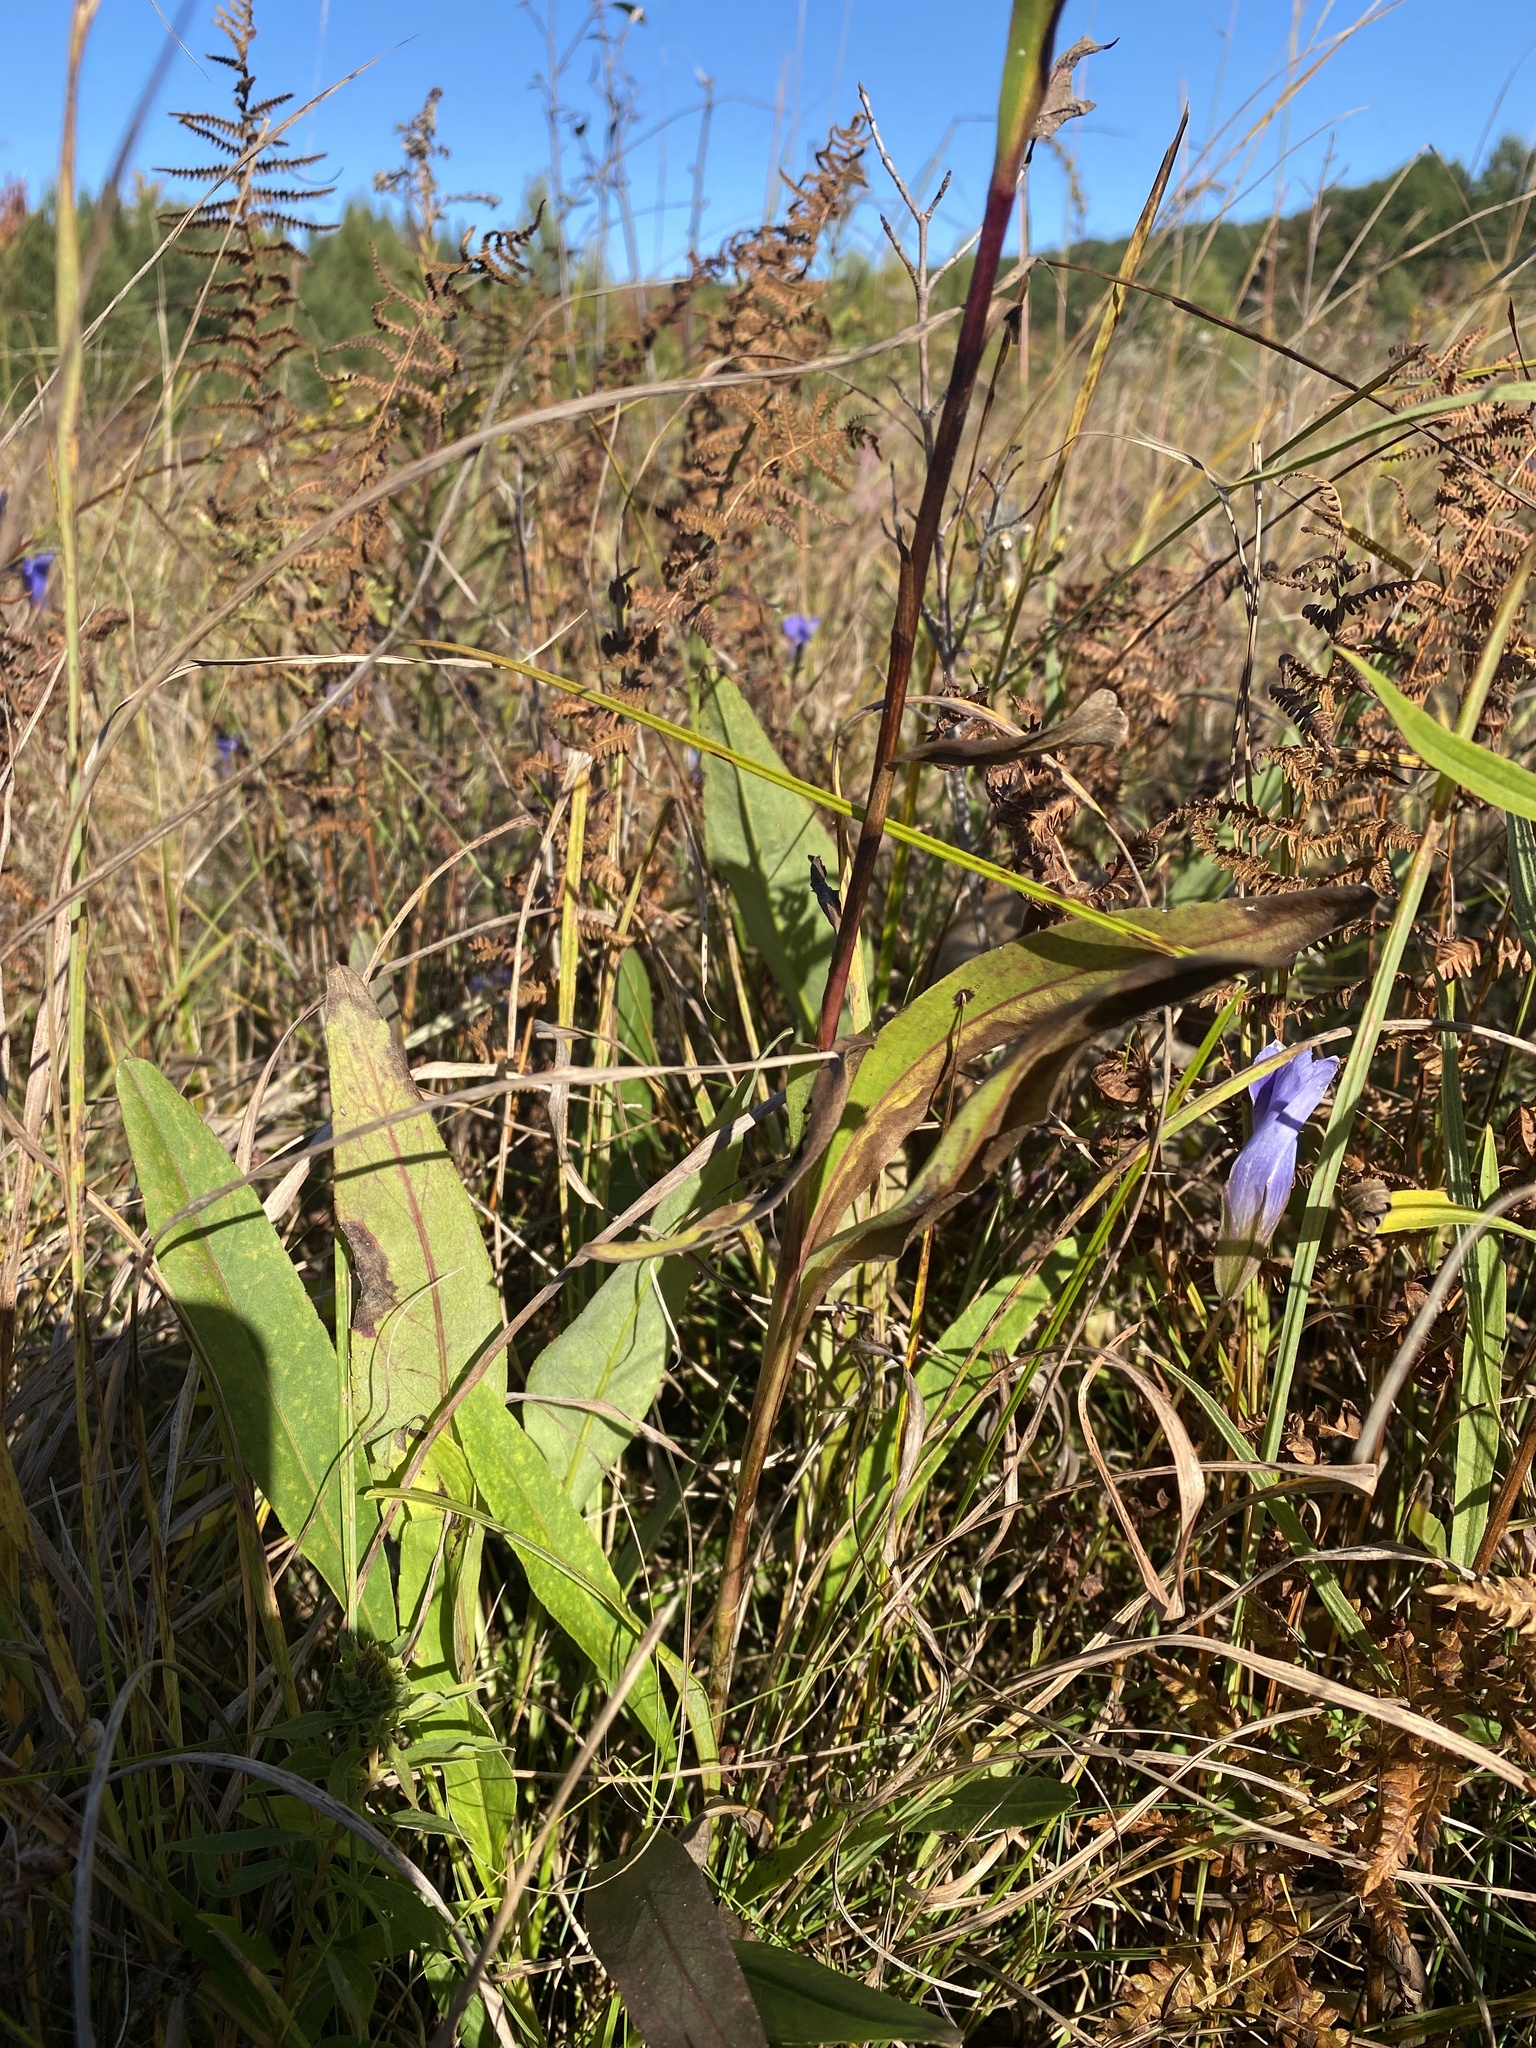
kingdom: Plantae
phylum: Tracheophyta
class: Magnoliopsida
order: Asterales
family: Asteraceae
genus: Solidago
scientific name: Solidago ohioensis
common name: Ohio goldenrod
